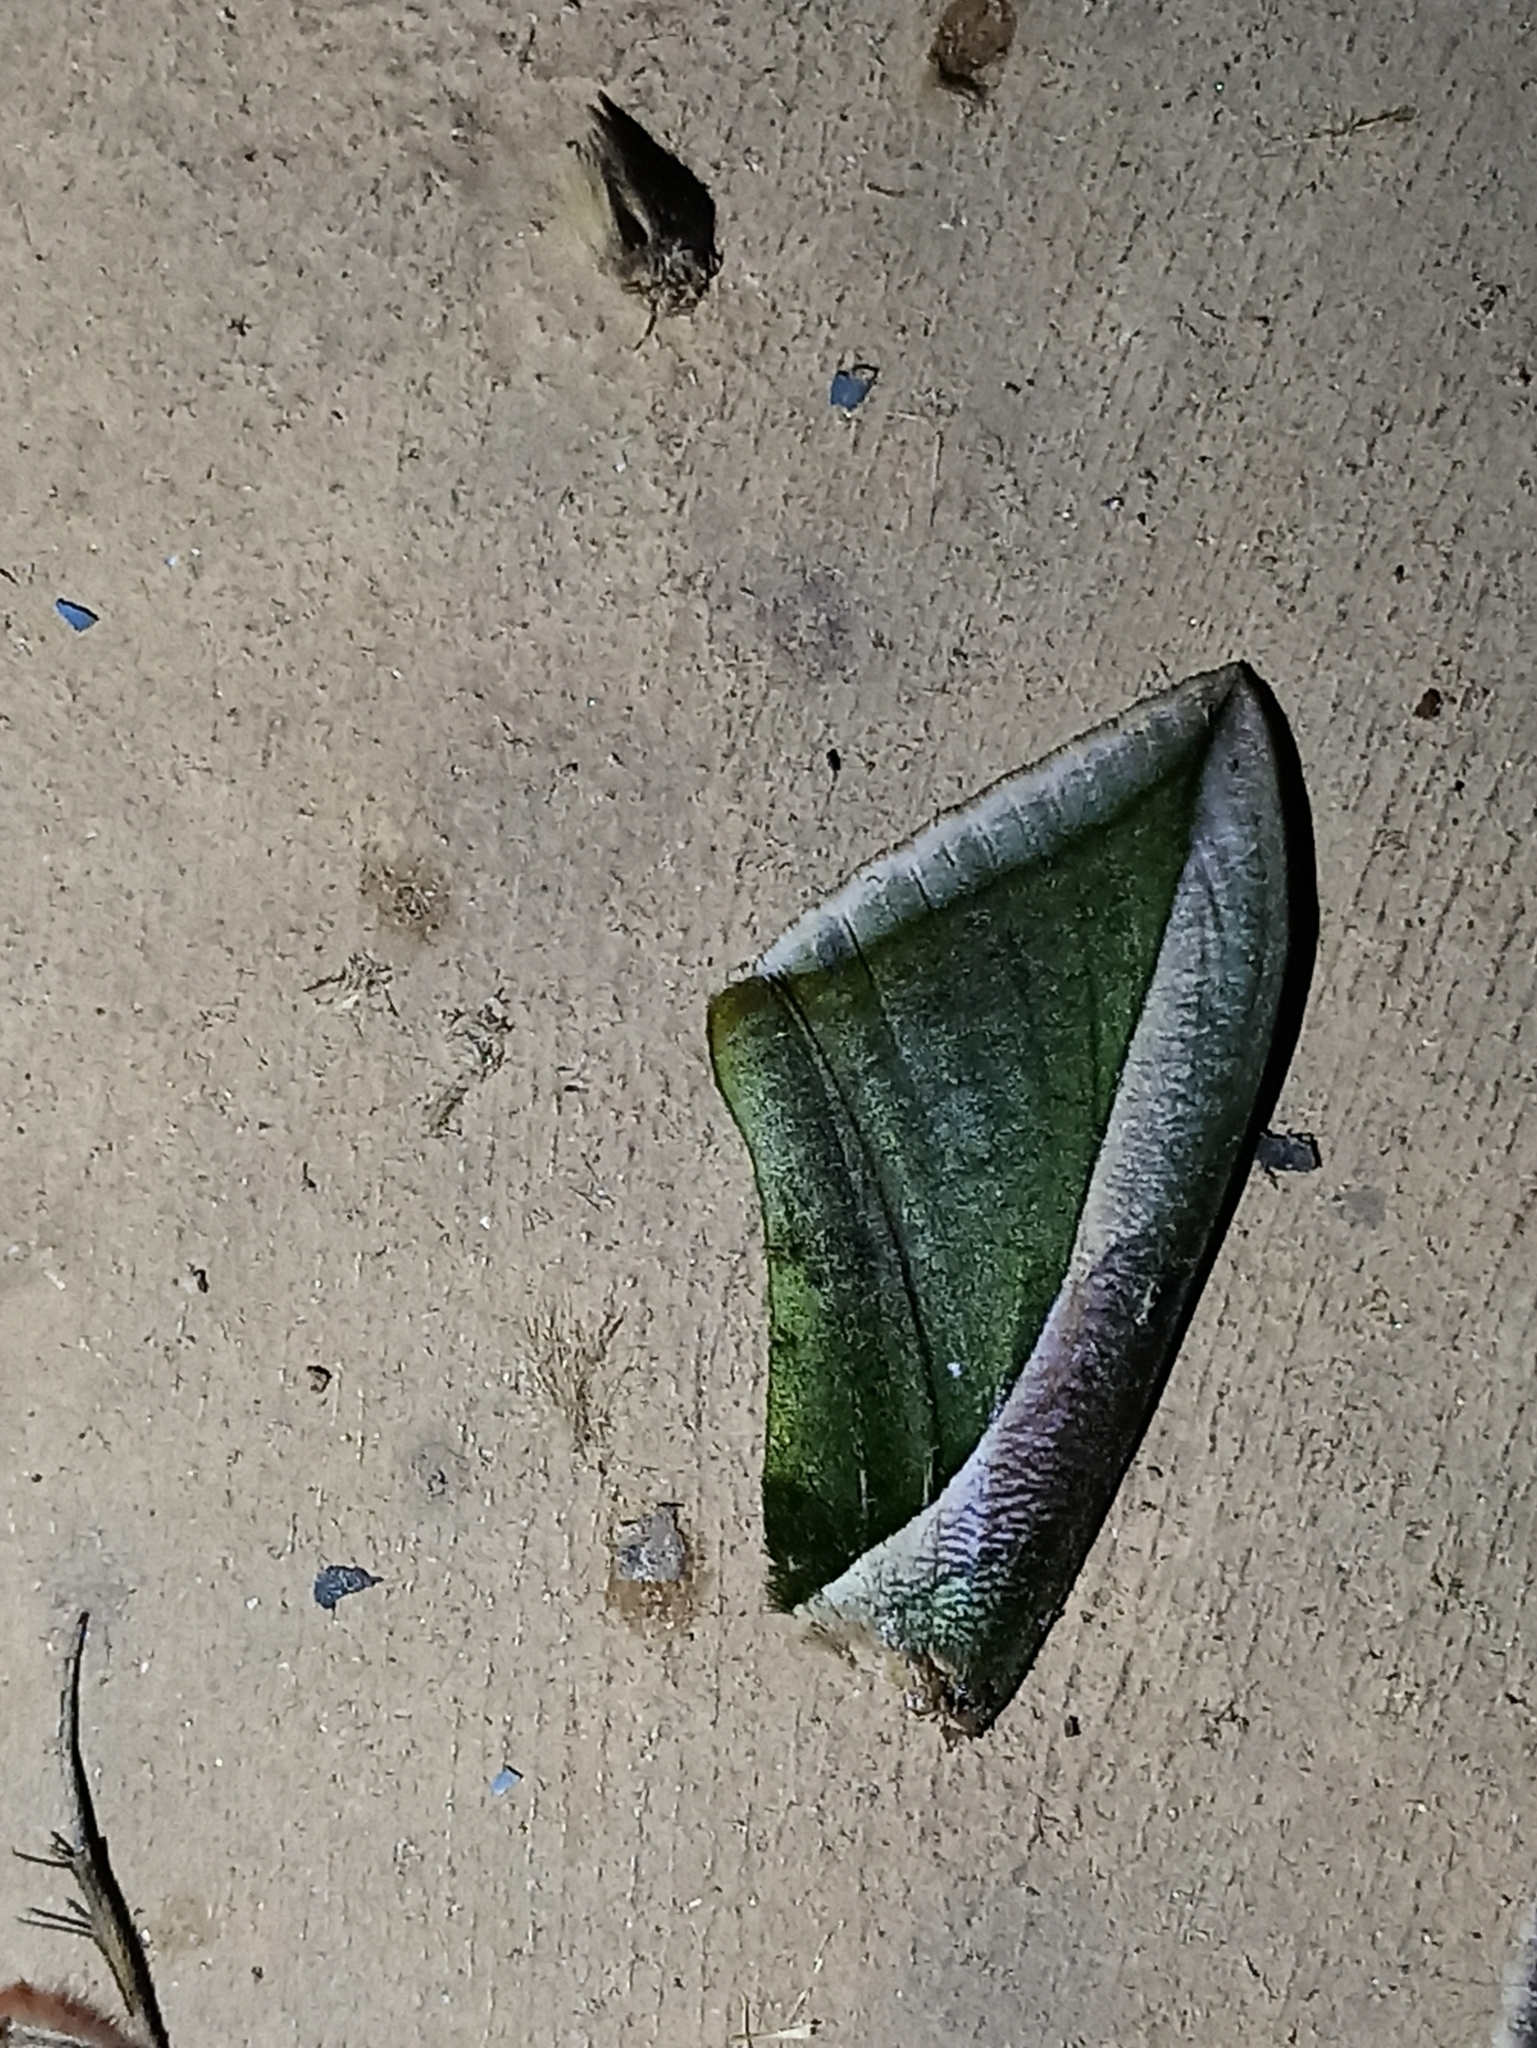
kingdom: Animalia
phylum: Arthropoda
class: Insecta
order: Lepidoptera
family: Erebidae
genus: Eudocima
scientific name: Eudocima salaminia
